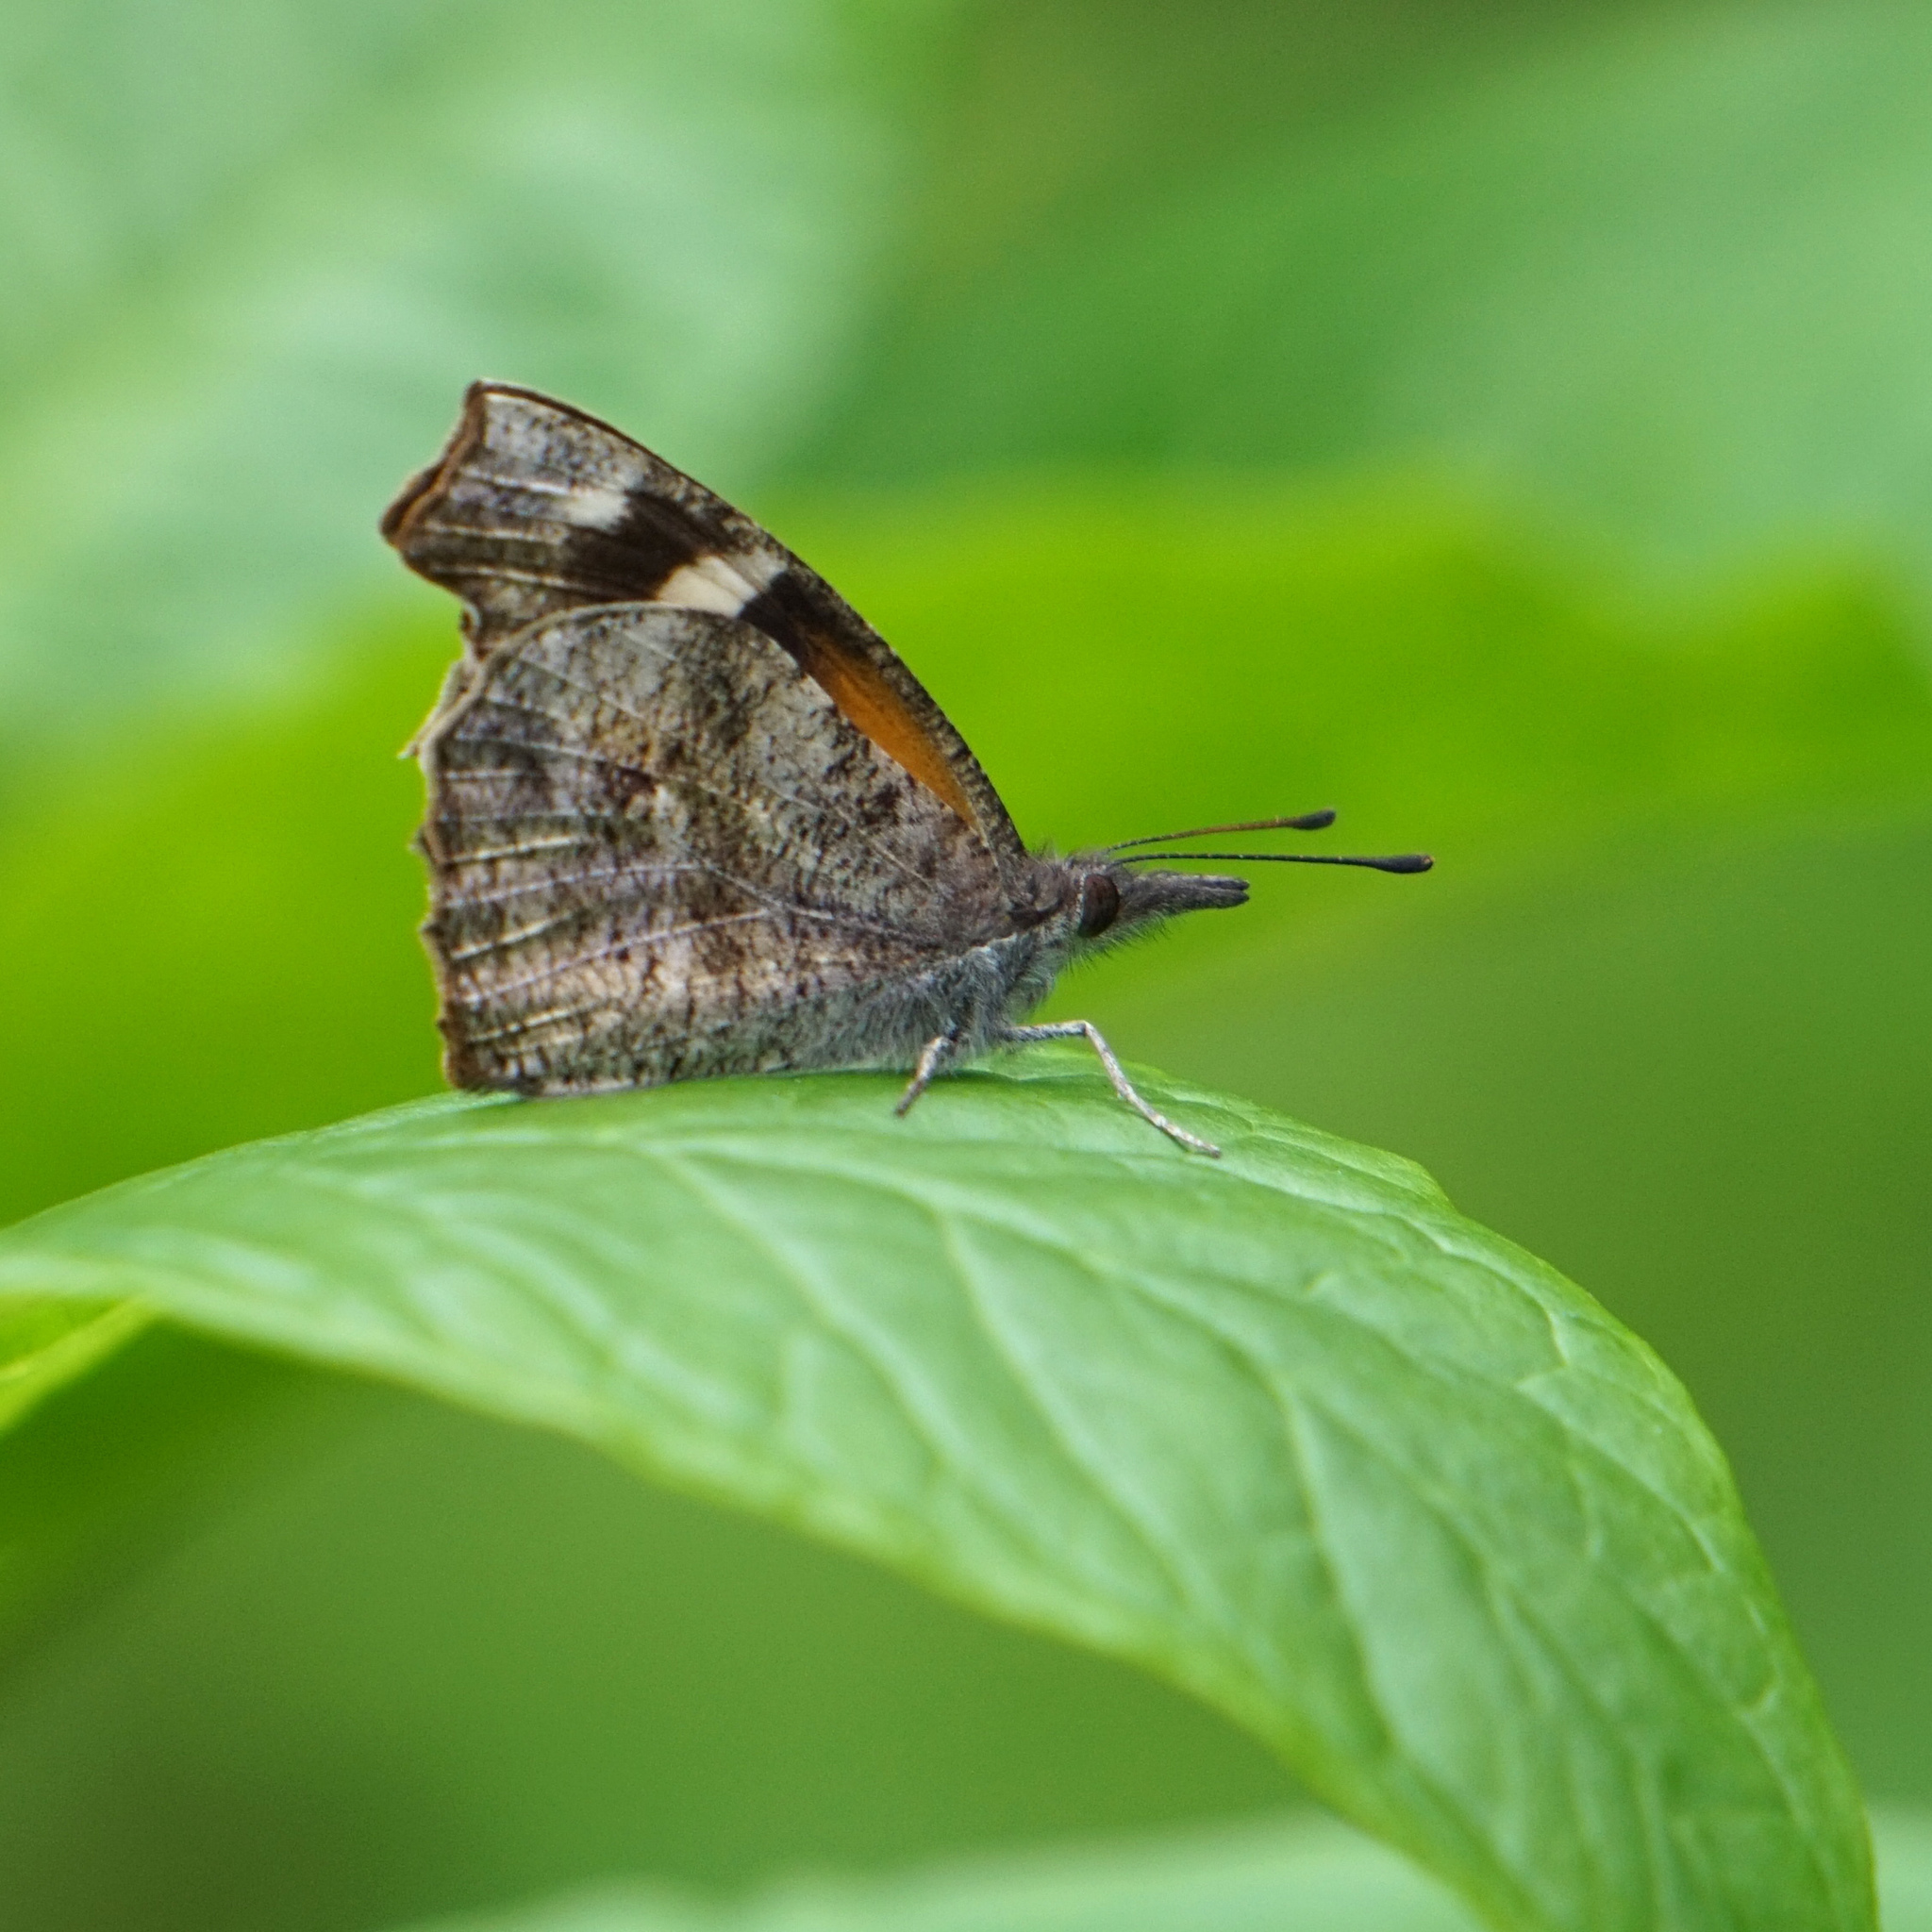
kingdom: Animalia
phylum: Arthropoda
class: Insecta
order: Lepidoptera
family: Nymphalidae
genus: Libytheana
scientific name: Libytheana carinenta
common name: American snout
